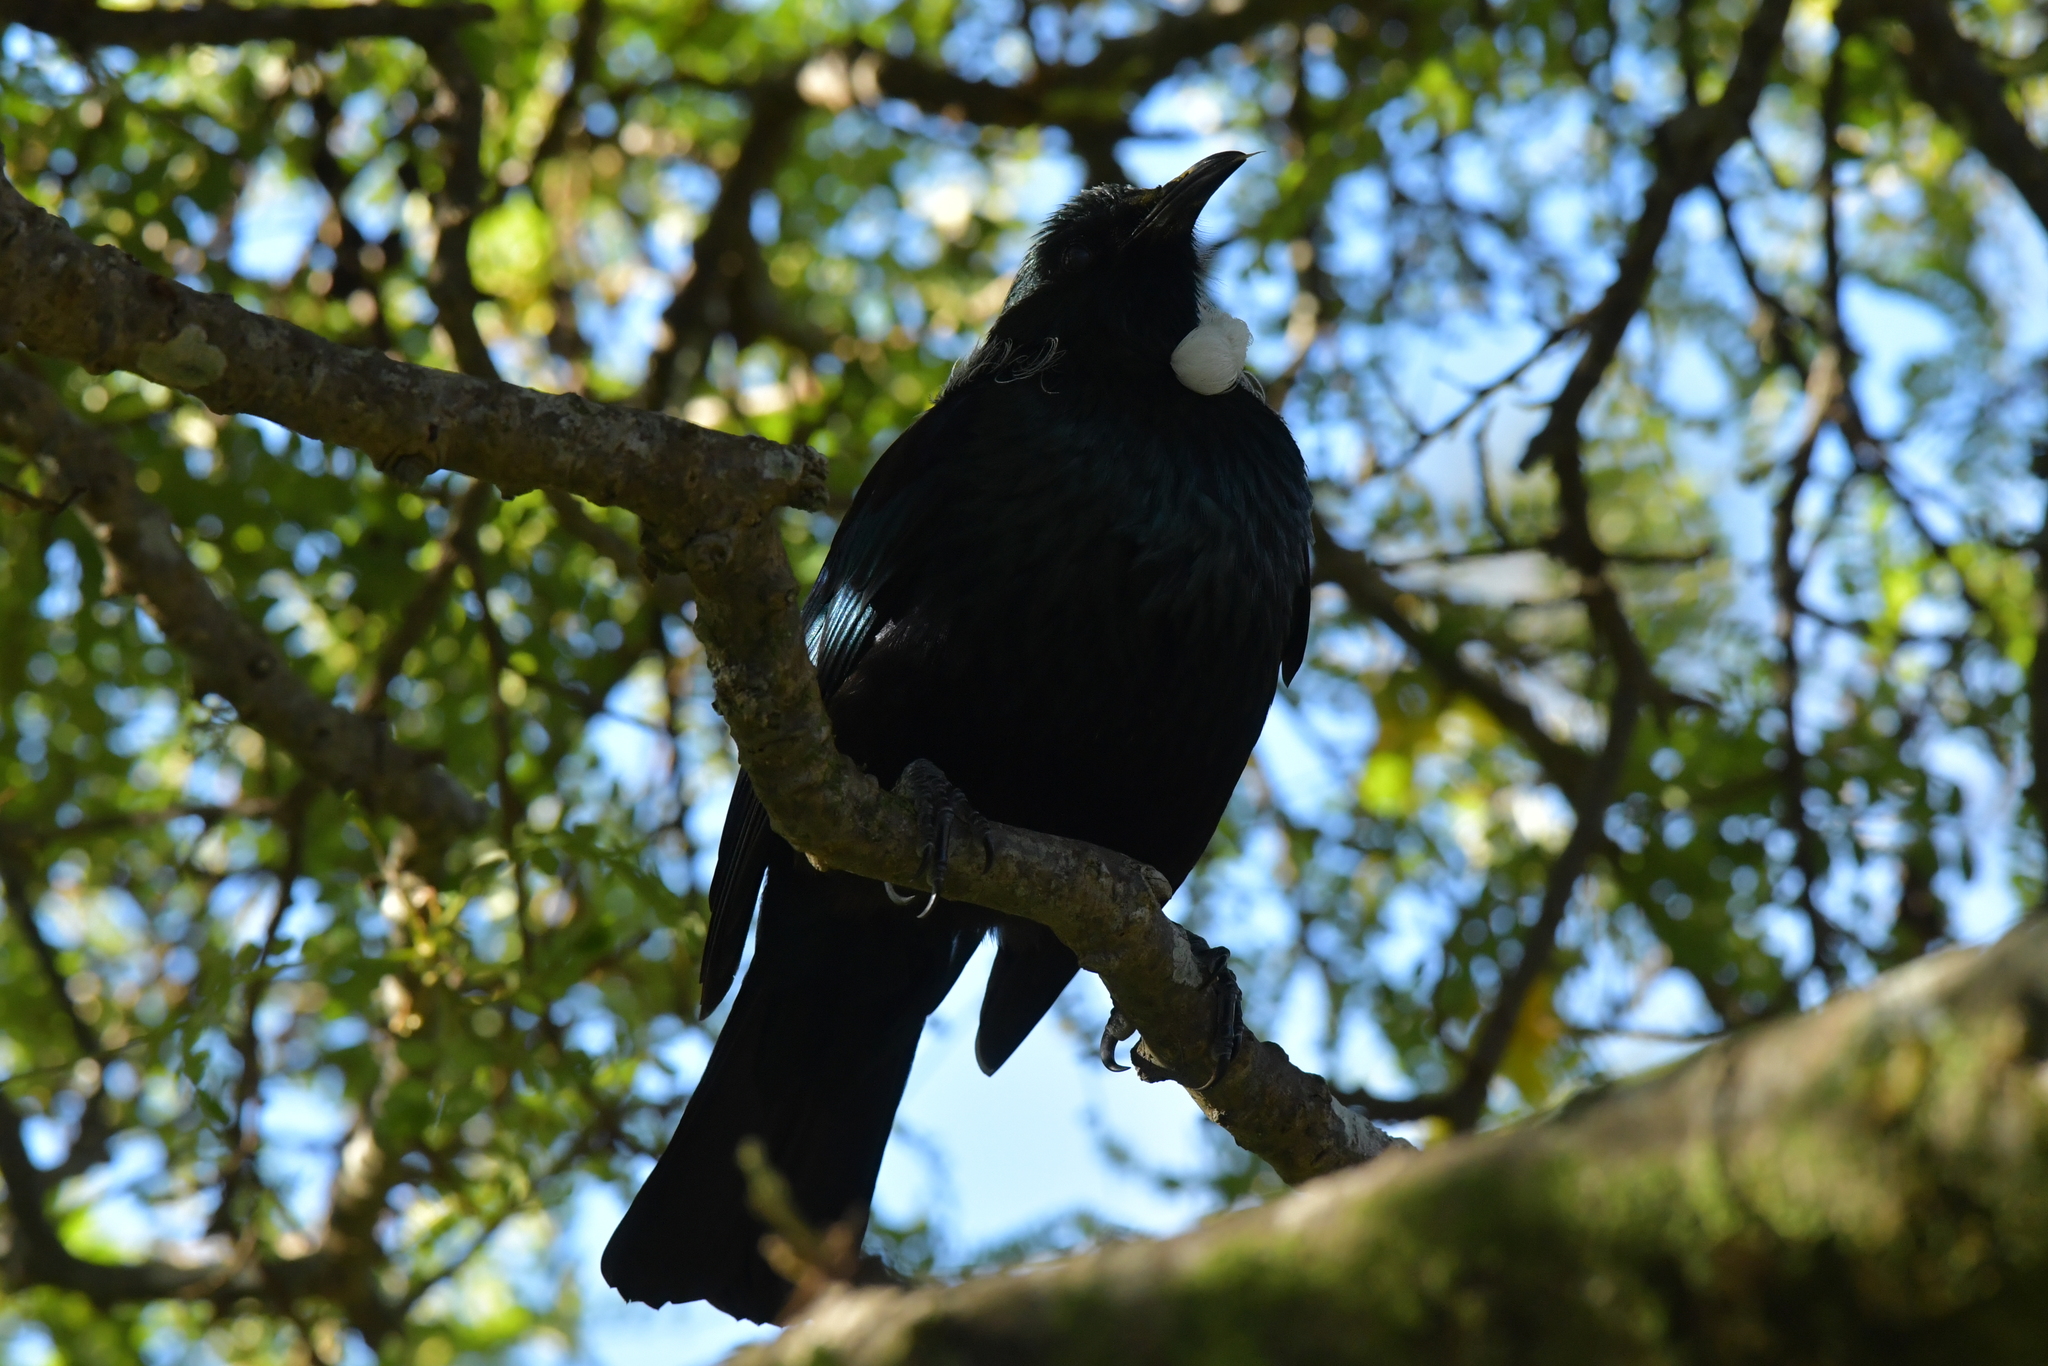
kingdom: Animalia
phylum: Chordata
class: Aves
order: Passeriformes
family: Meliphagidae
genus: Prosthemadera
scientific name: Prosthemadera novaeseelandiae
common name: Tui
